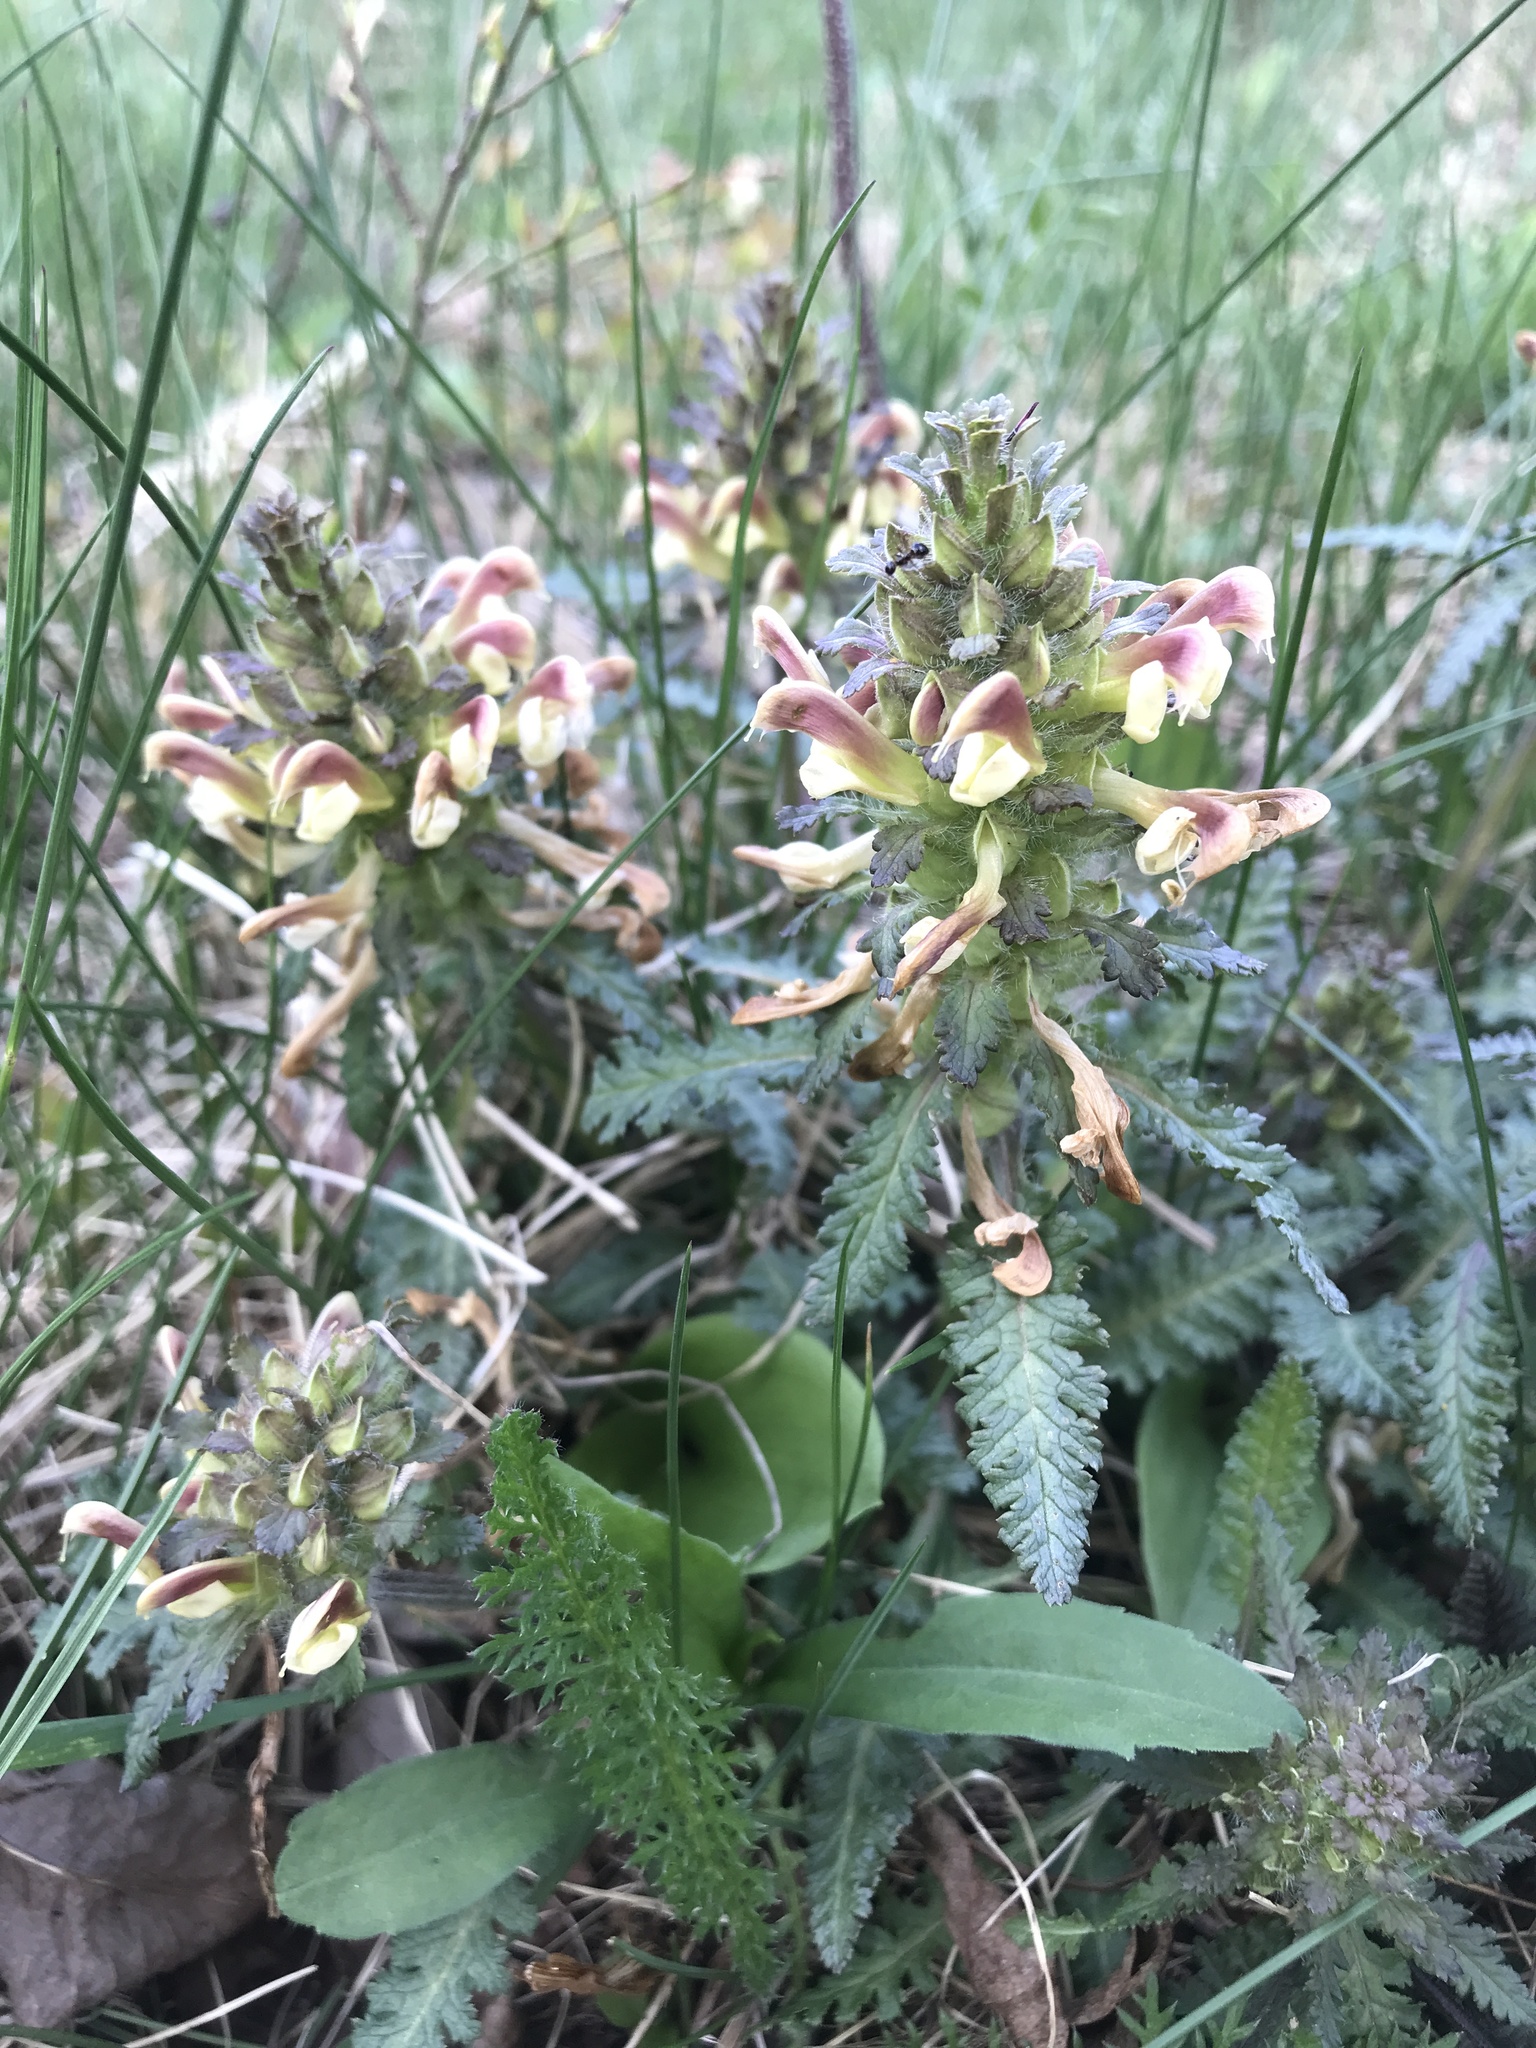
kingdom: Plantae
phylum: Tracheophyta
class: Magnoliopsida
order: Lamiales
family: Orobanchaceae
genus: Pedicularis
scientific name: Pedicularis canadensis
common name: Early lousewort
